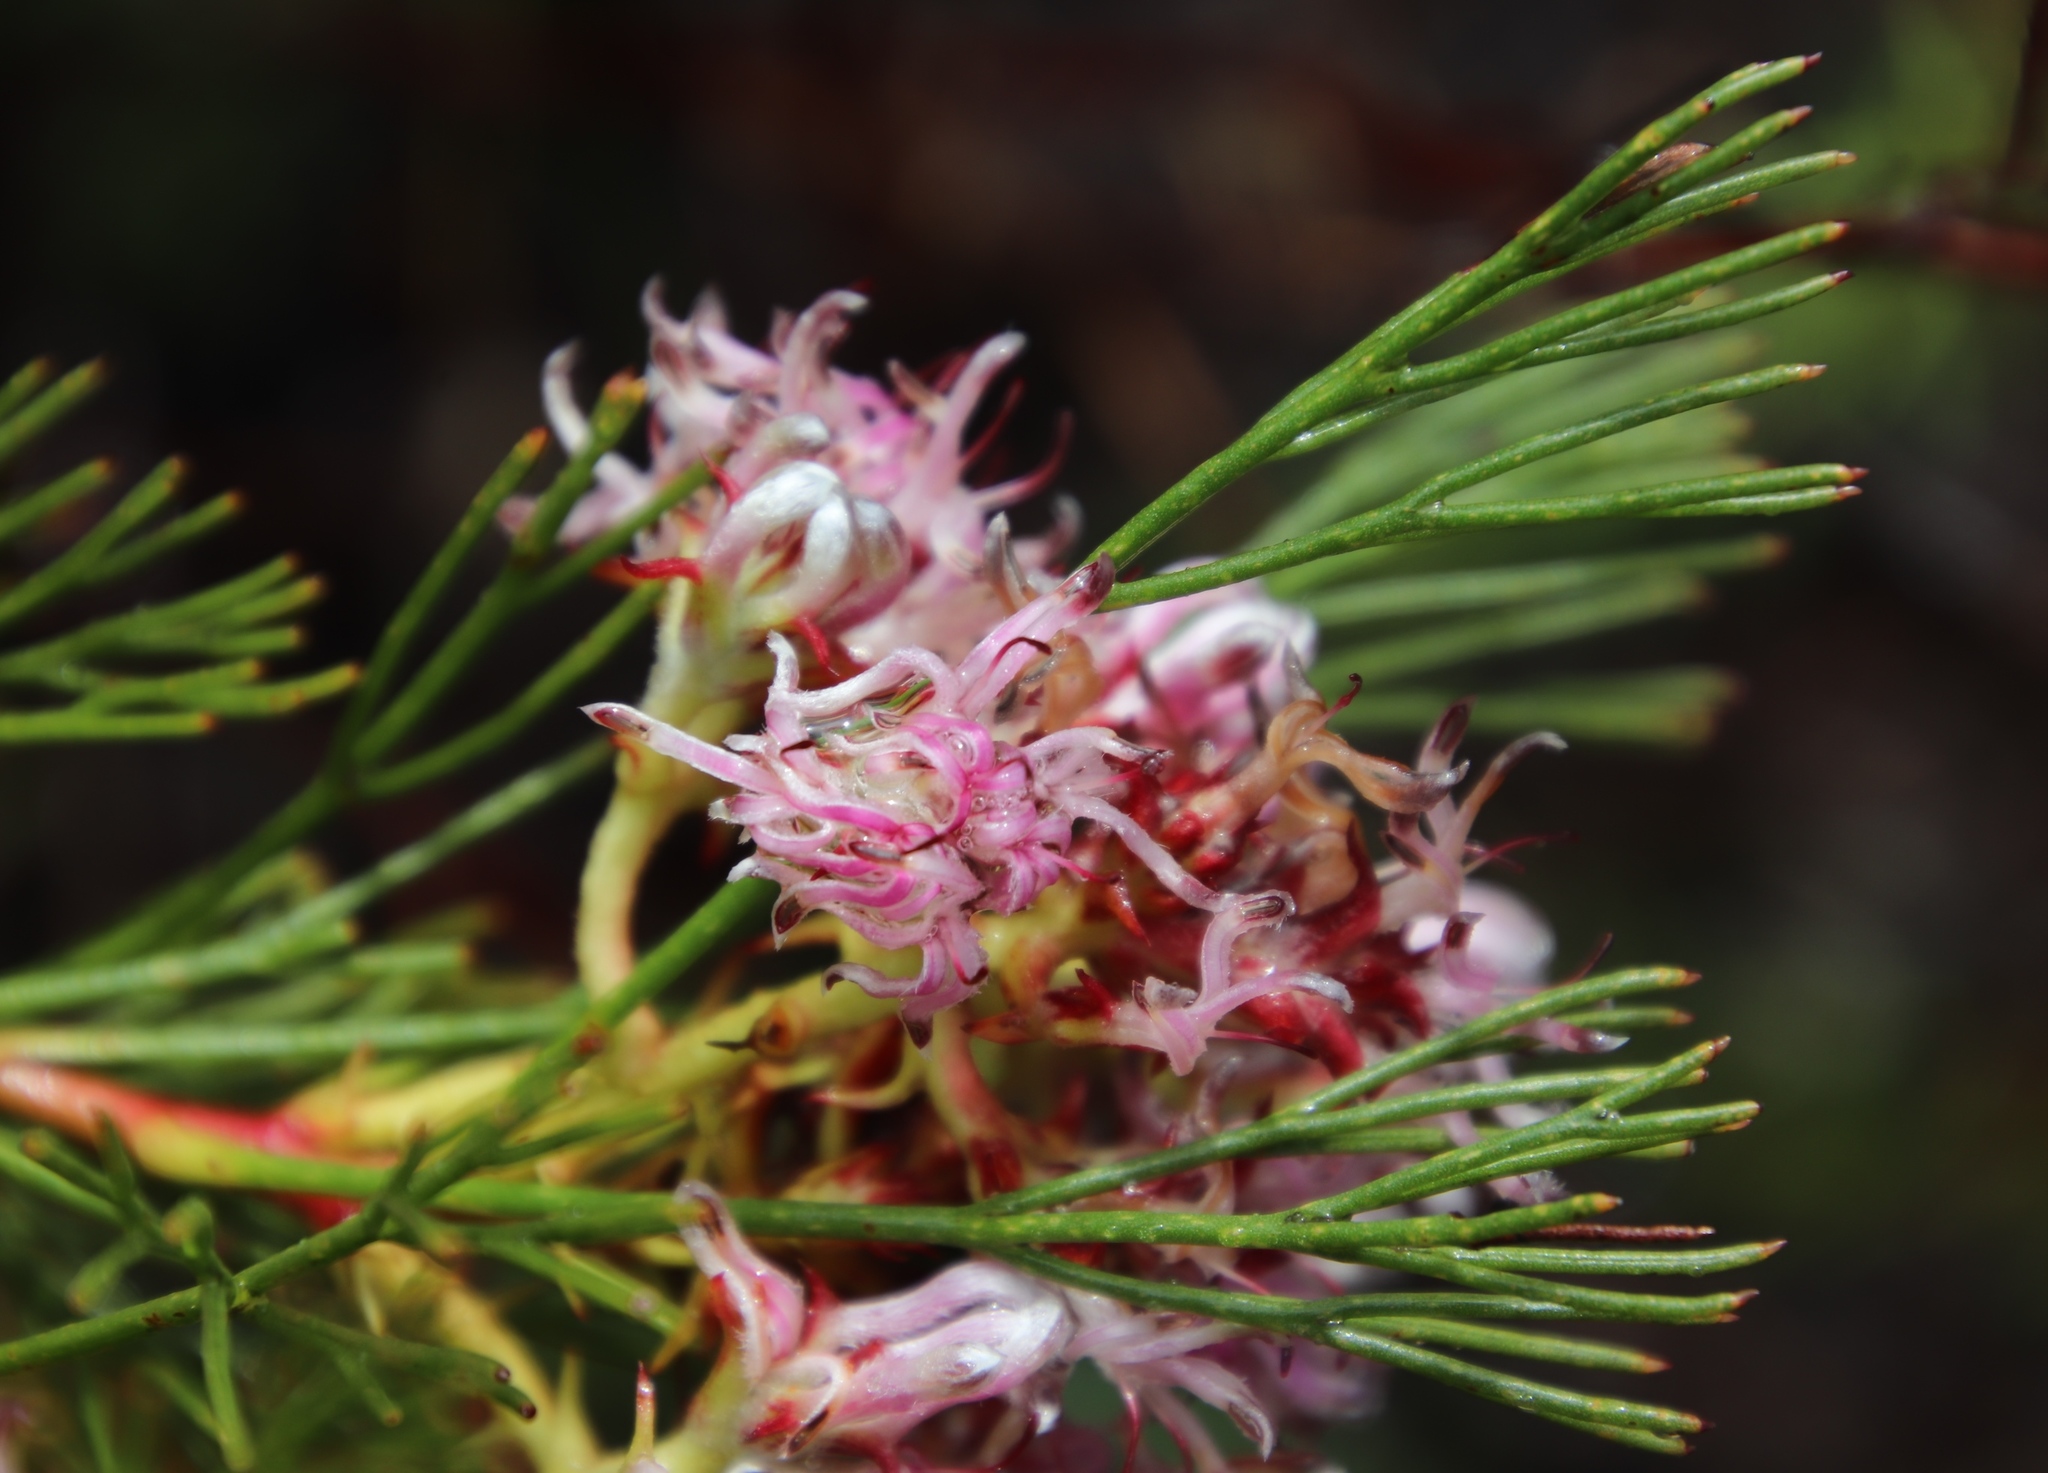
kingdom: Plantae
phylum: Tracheophyta
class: Magnoliopsida
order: Proteales
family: Proteaceae
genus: Serruria
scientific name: Serruria rubricaulis
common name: Red-stem spiderhead
